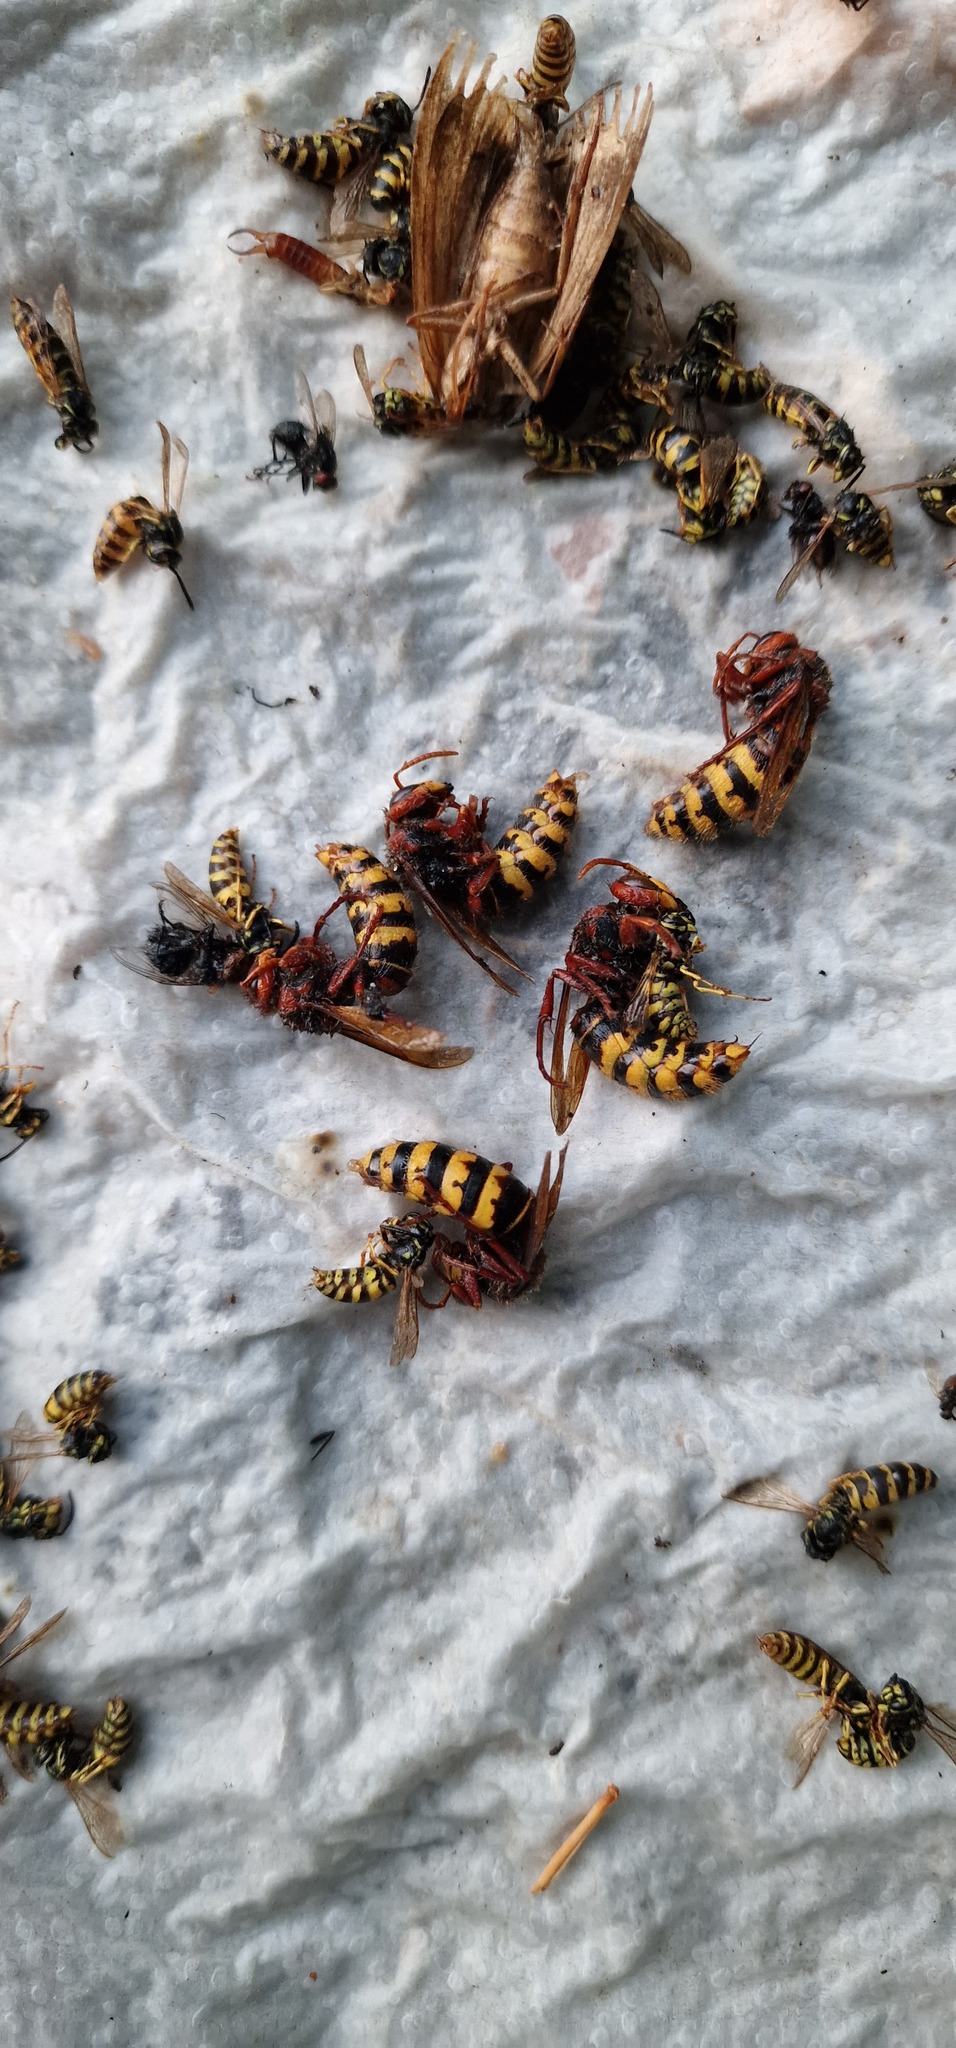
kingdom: Animalia
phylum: Arthropoda
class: Insecta
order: Hymenoptera
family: Vespidae
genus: Vespa
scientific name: Vespa crabro
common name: Hornet
